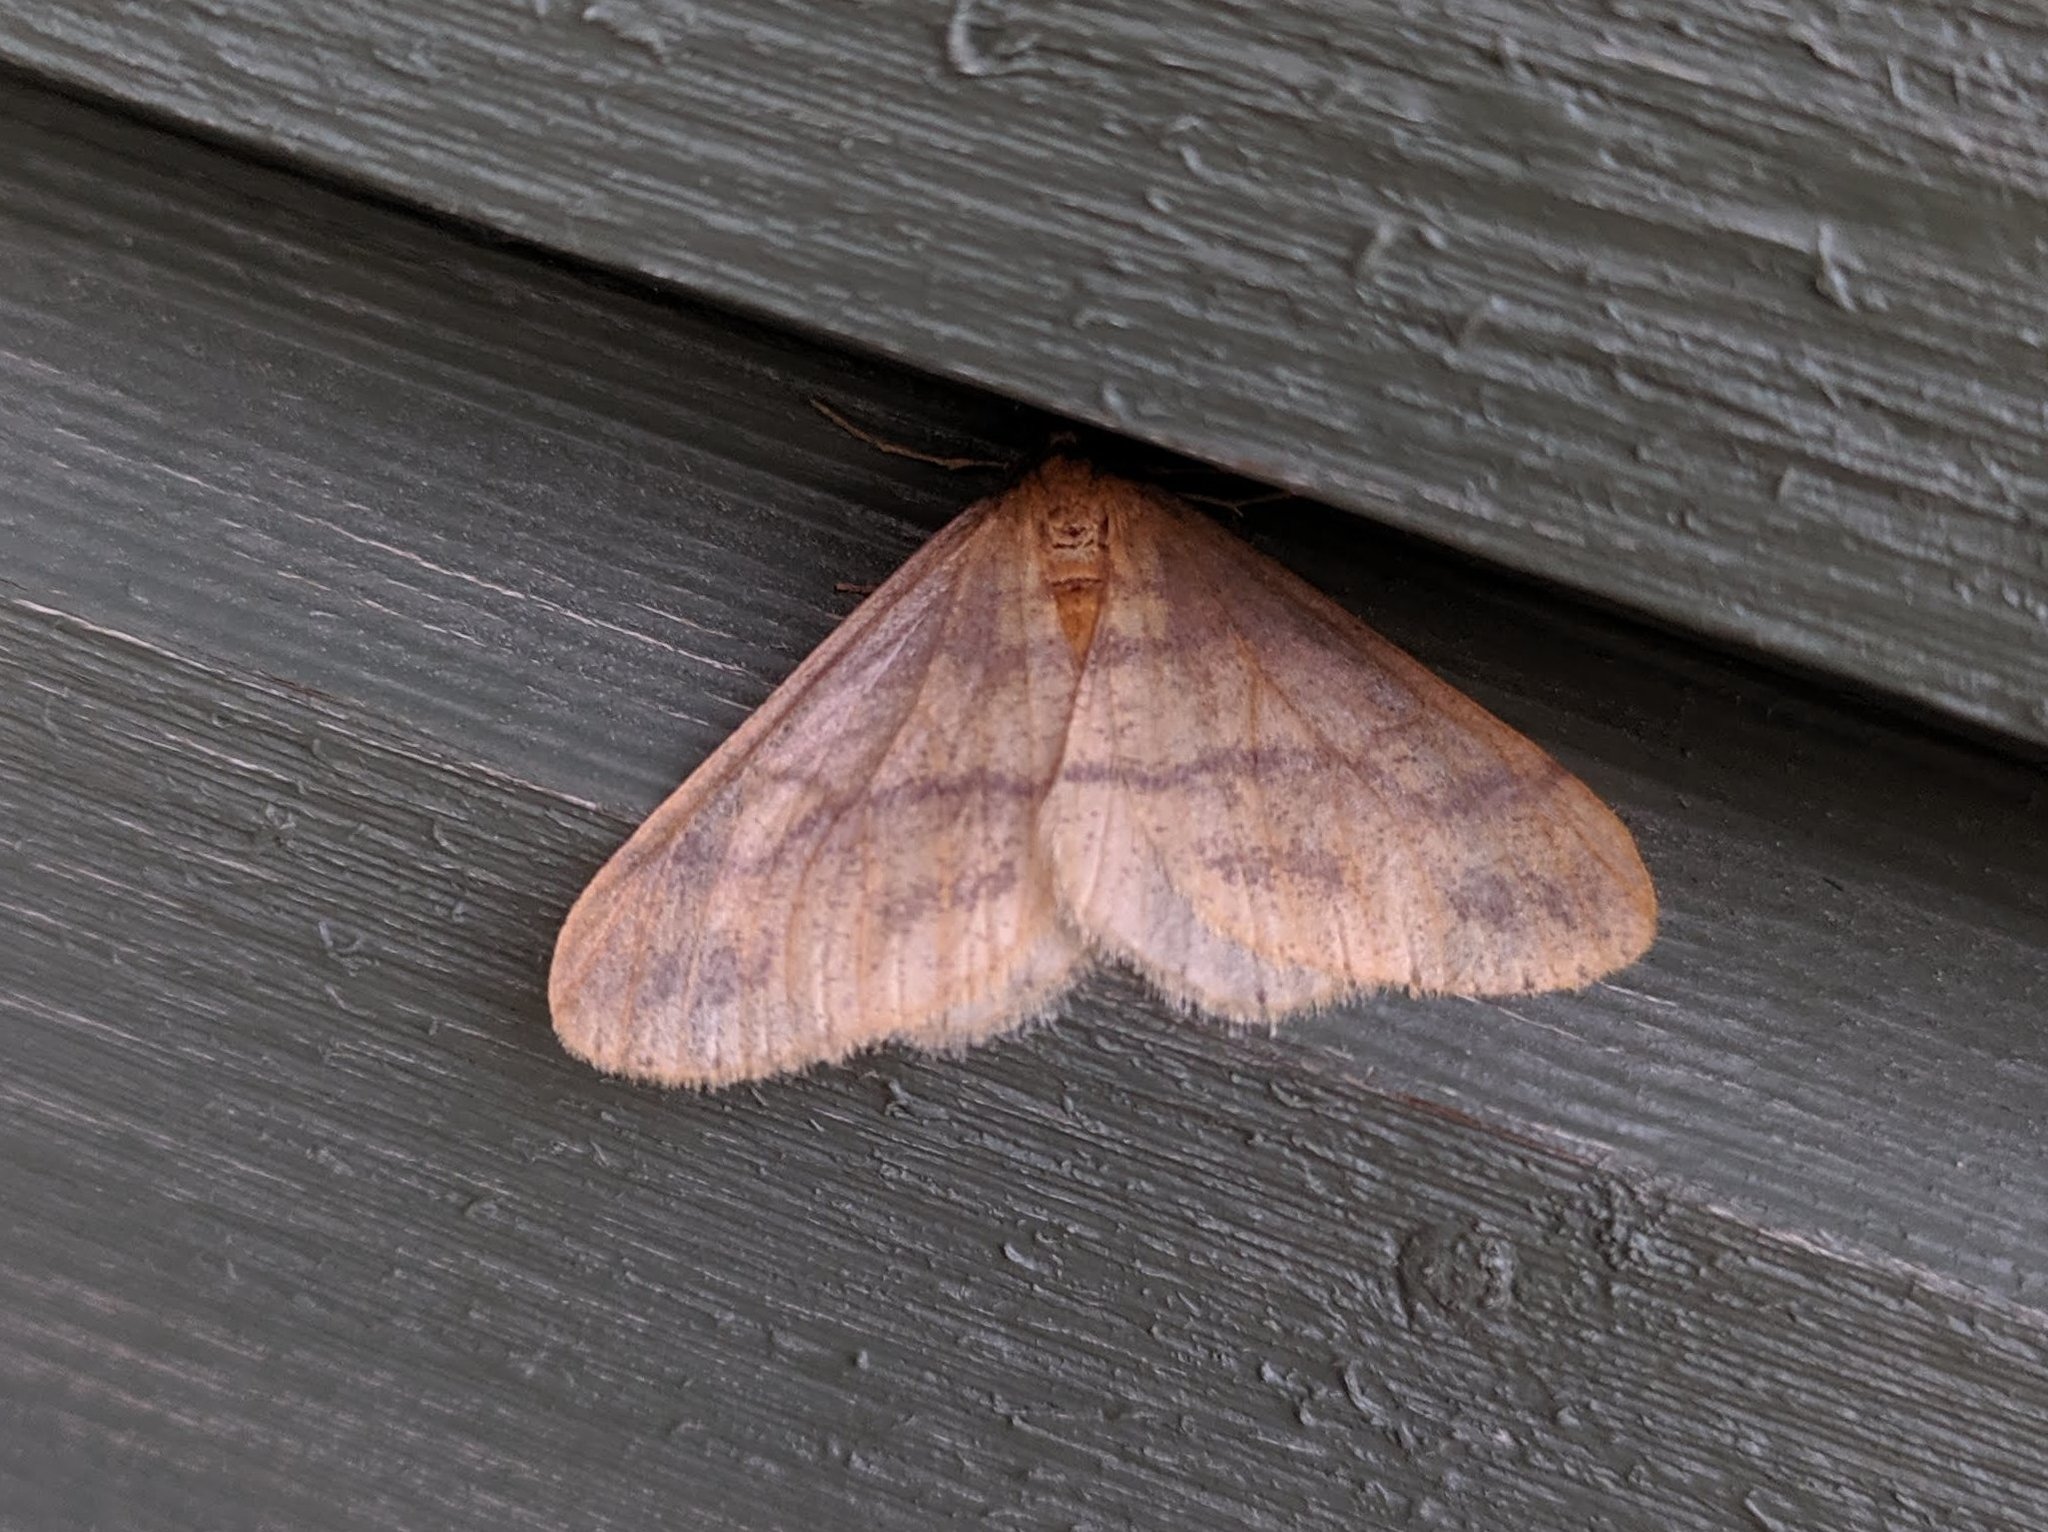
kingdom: Animalia
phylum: Arthropoda
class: Insecta
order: Lepidoptera
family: Geometridae
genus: Agriopis
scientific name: Agriopis aurantiaria
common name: Scarce umber
